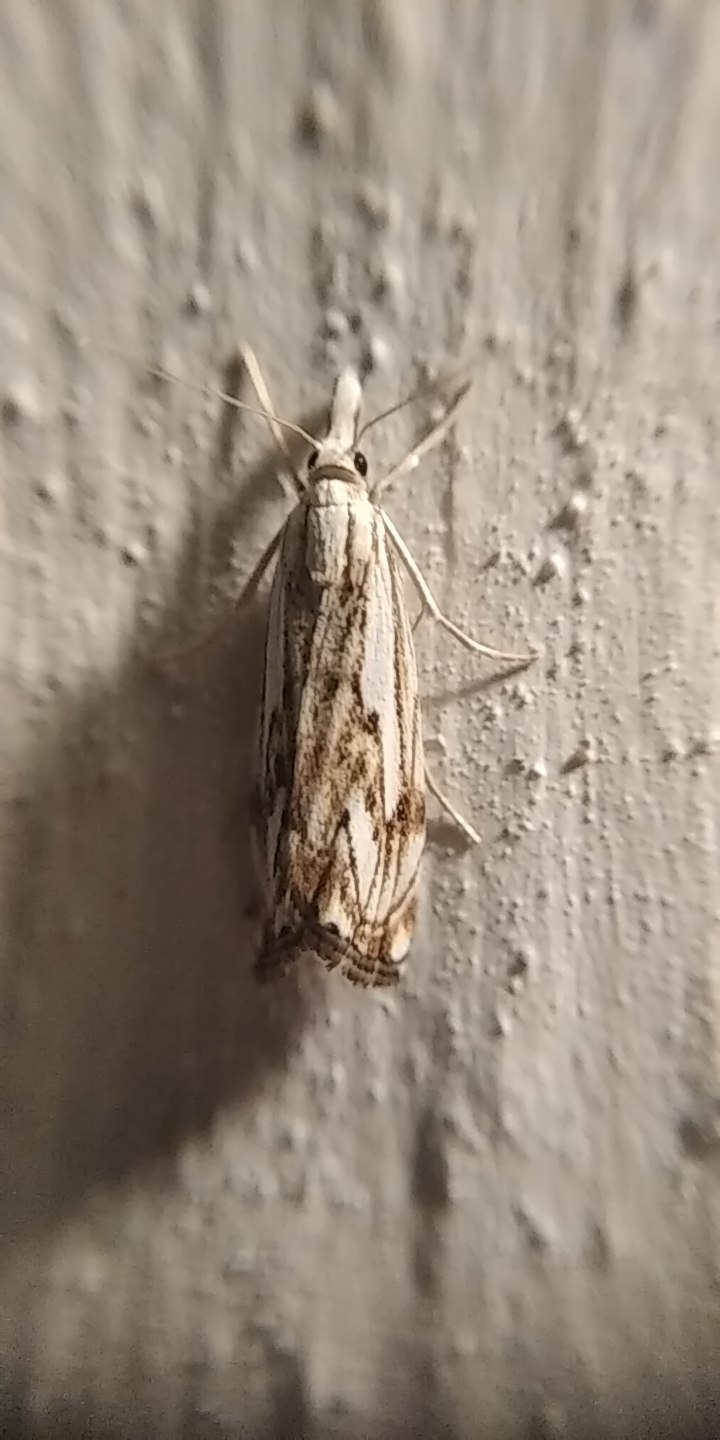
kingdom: Animalia
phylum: Arthropoda
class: Insecta
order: Lepidoptera
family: Crambidae
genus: Catoptria
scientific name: Catoptria falsella
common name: Chequered grass-veneer
